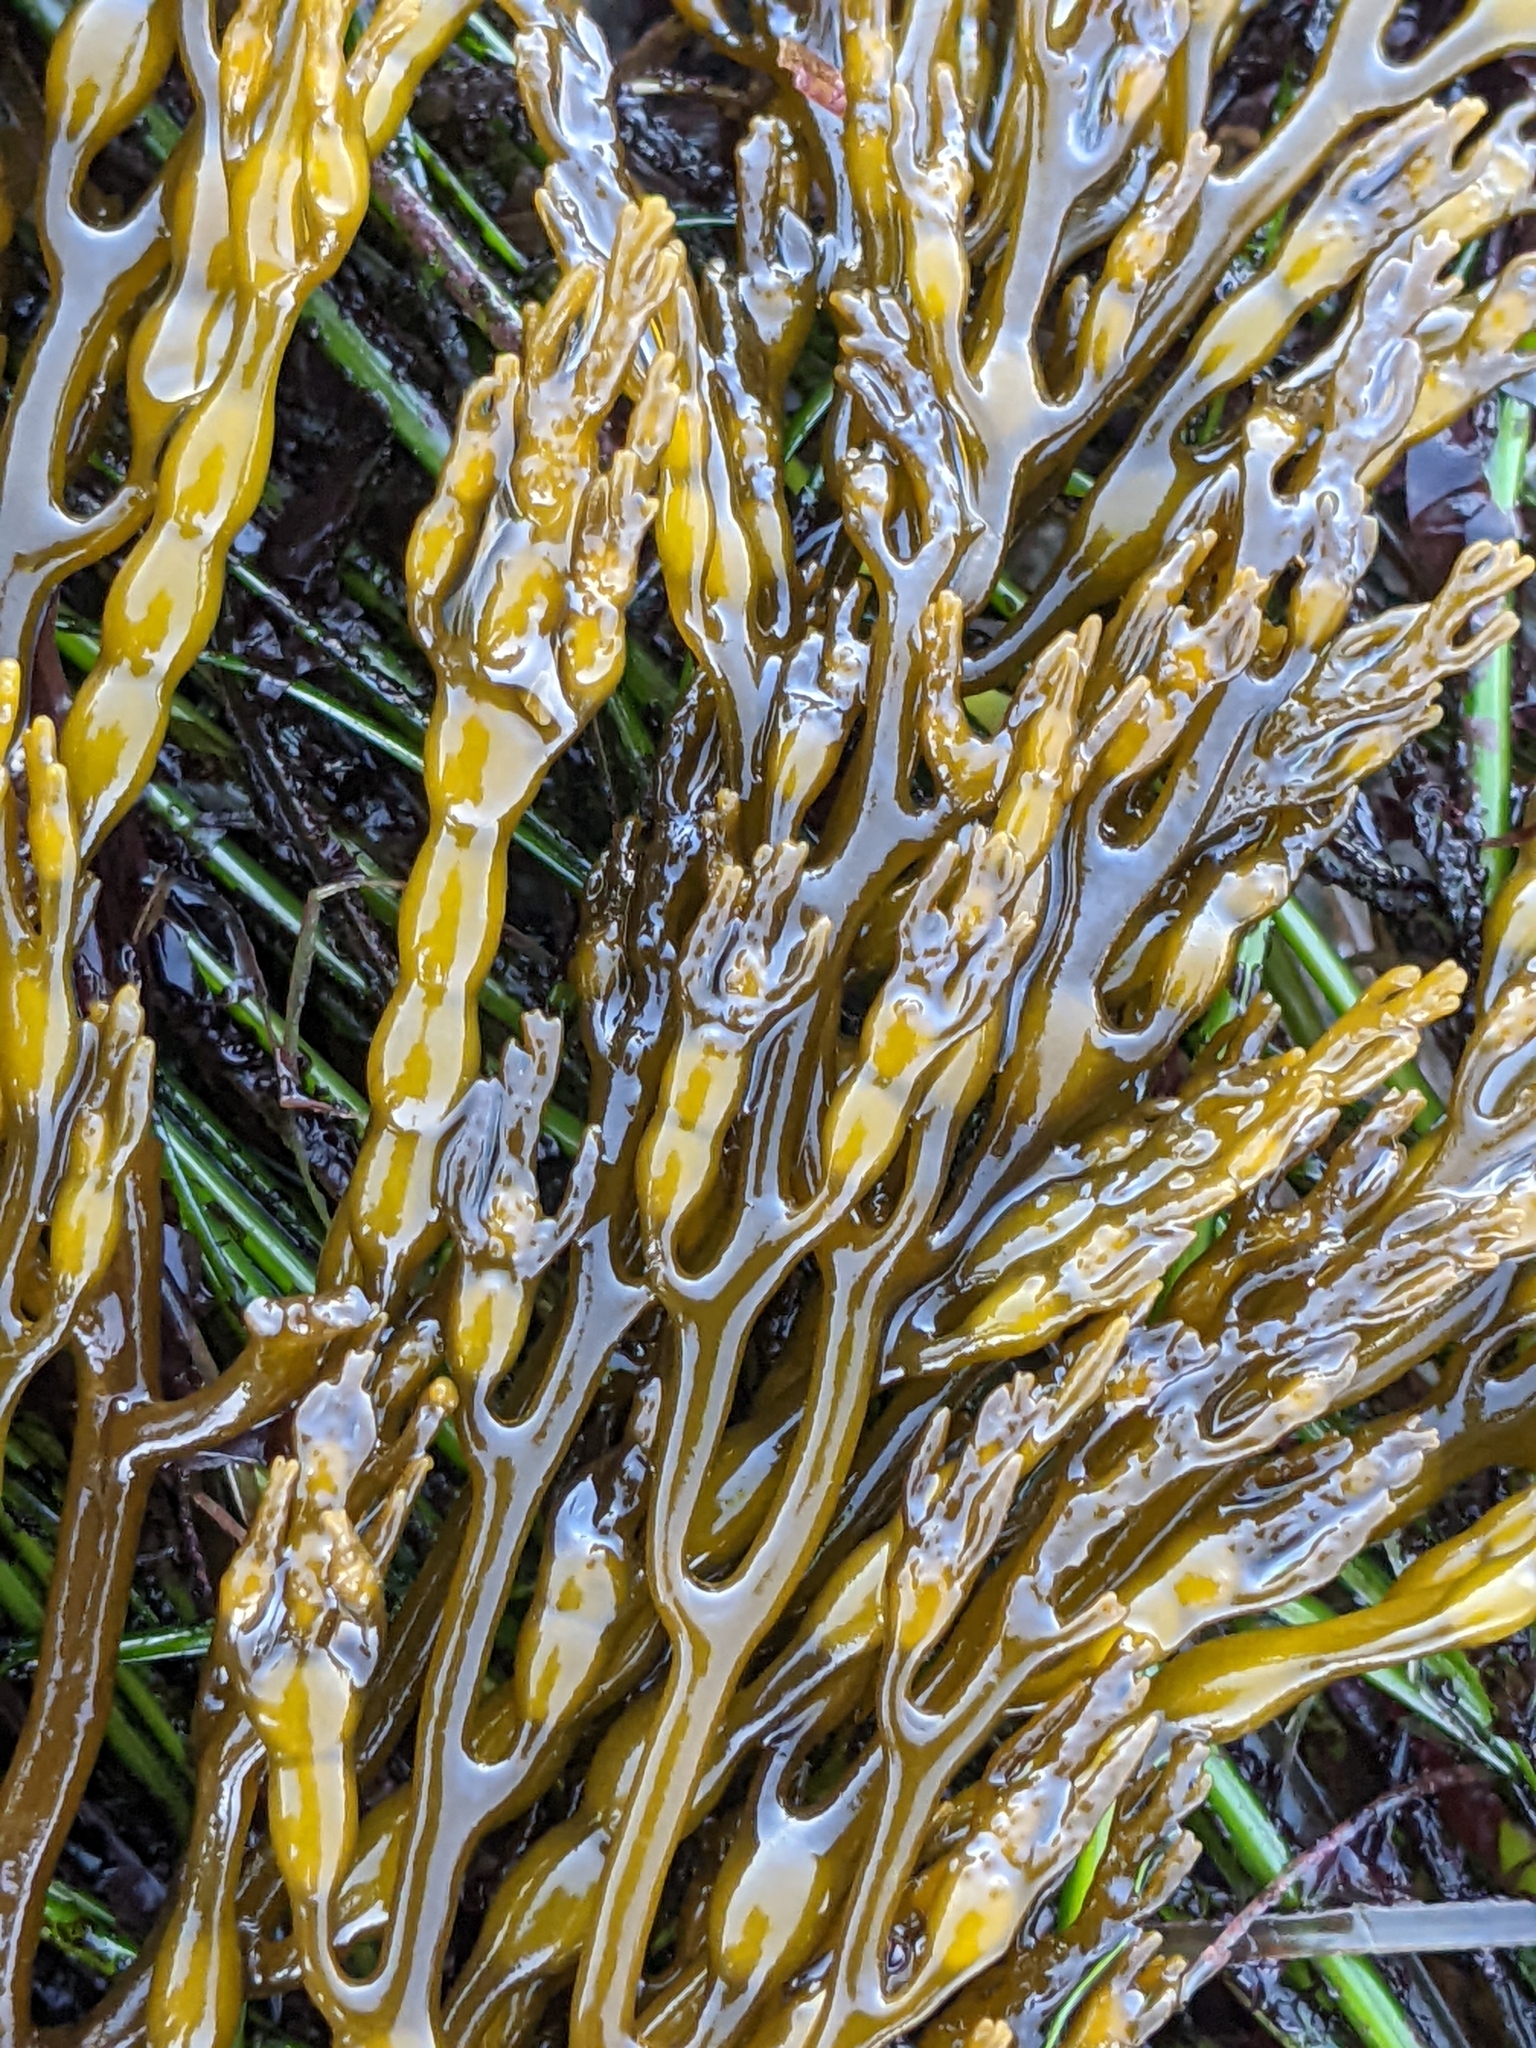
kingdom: Chromista
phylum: Ochrophyta
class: Phaeophyceae
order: Fucales
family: Sargassaceae
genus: Stephanocystis
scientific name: Stephanocystis
